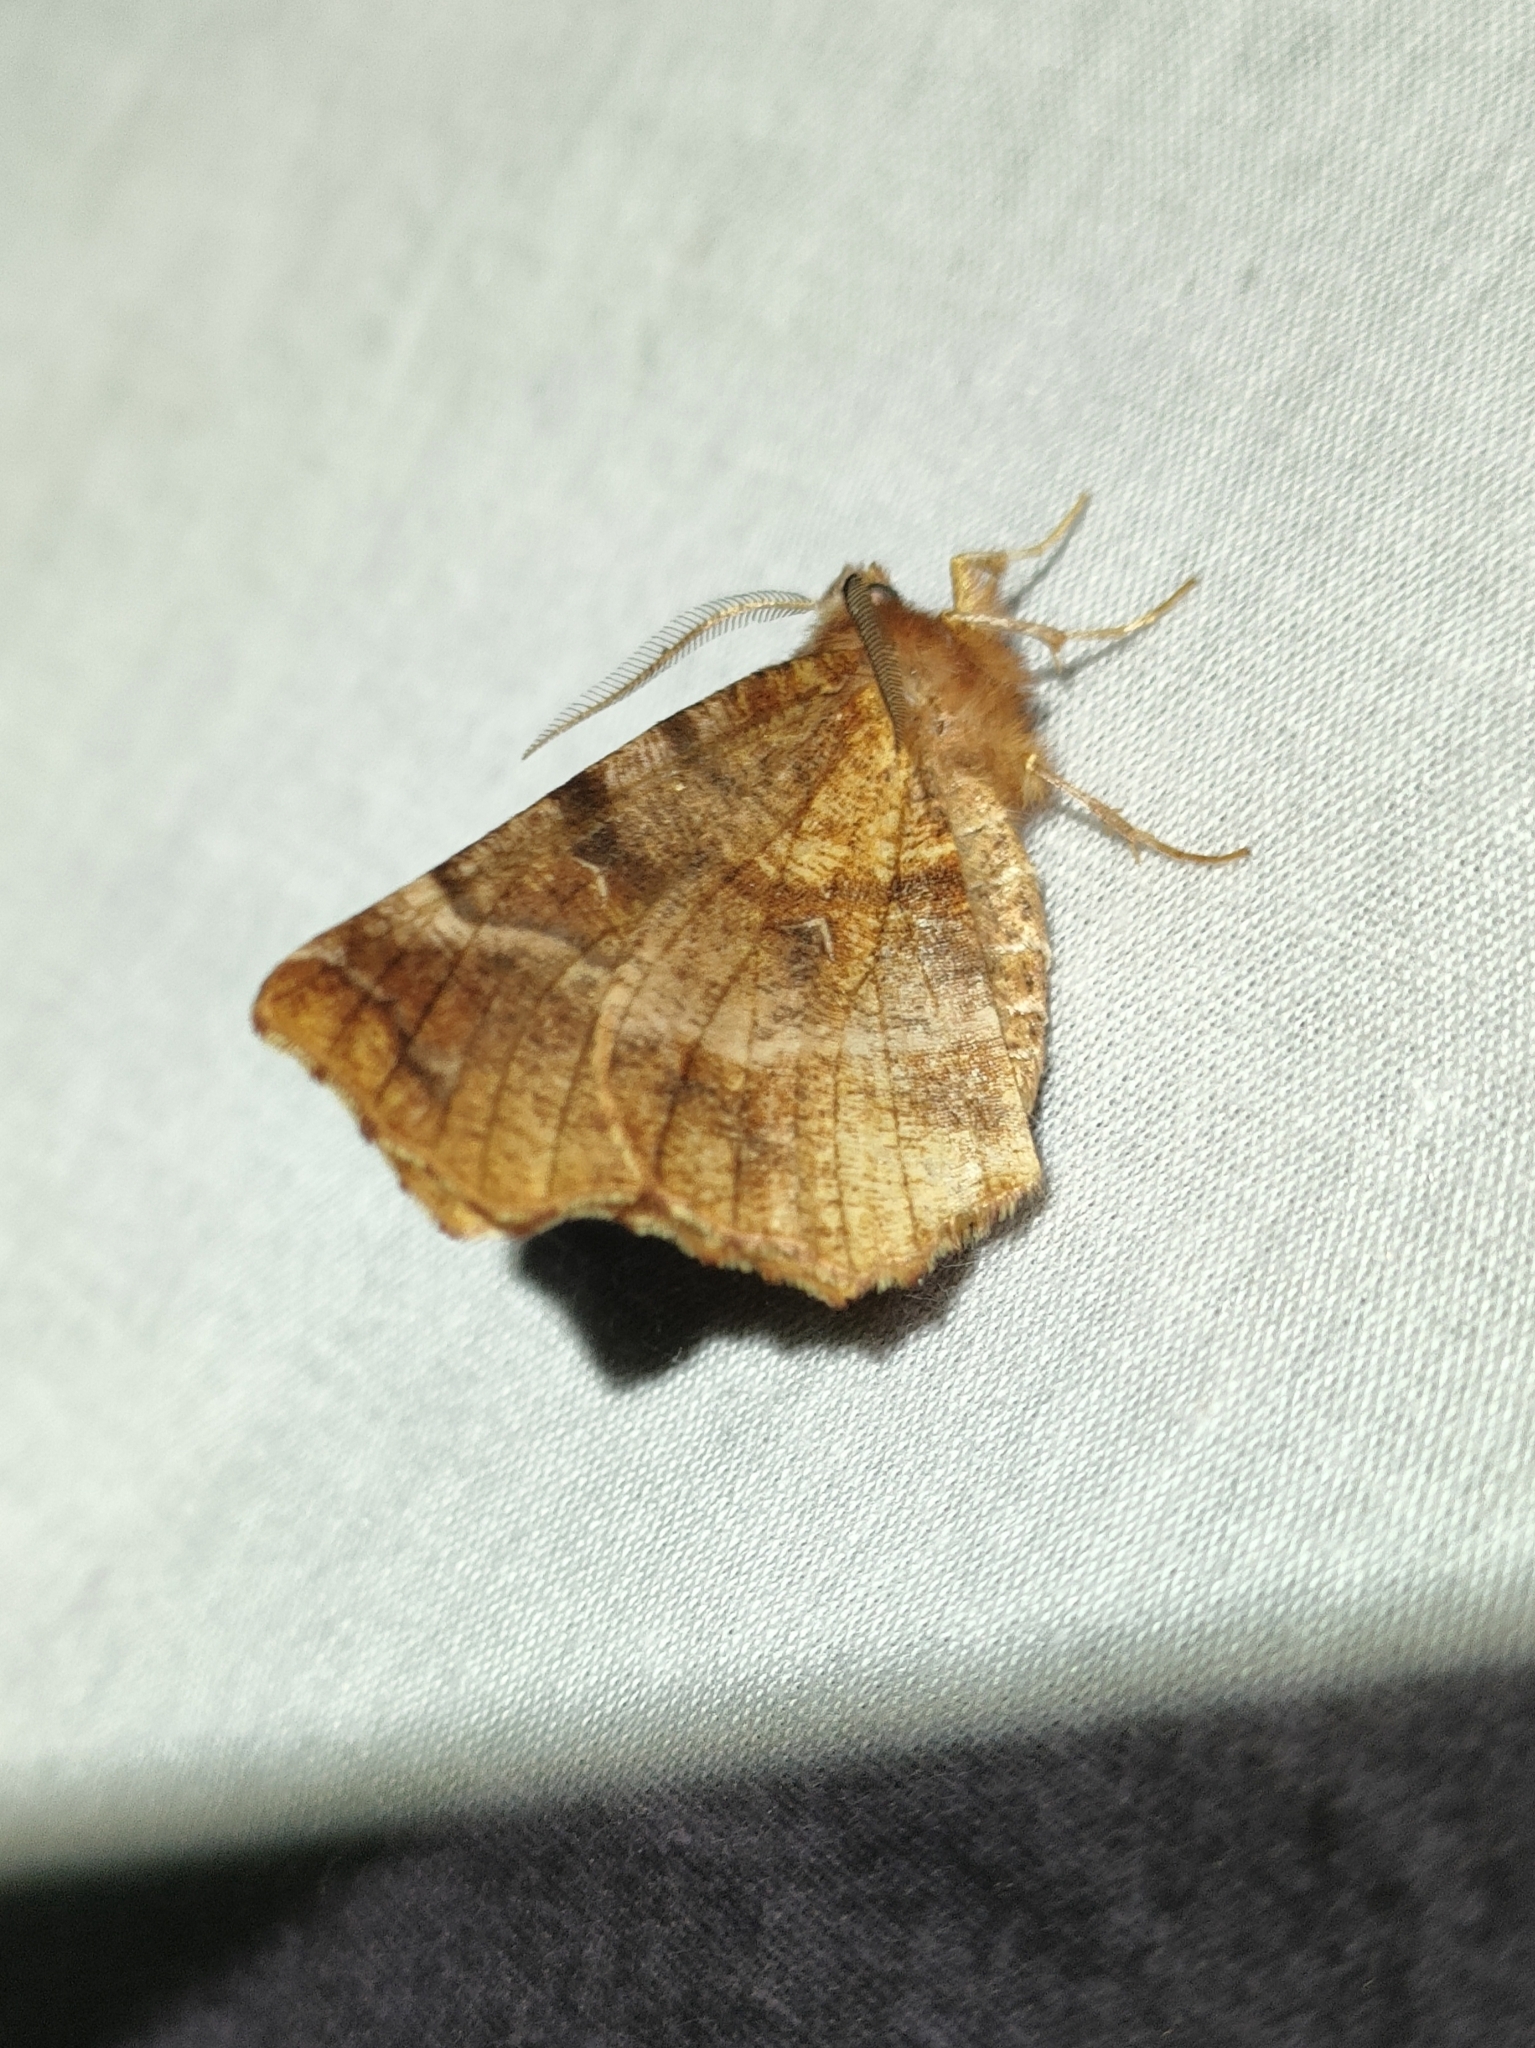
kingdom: Animalia
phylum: Arthropoda
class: Insecta
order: Lepidoptera
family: Geometridae
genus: Selenia
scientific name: Selenia dentaria
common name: Early thorn
